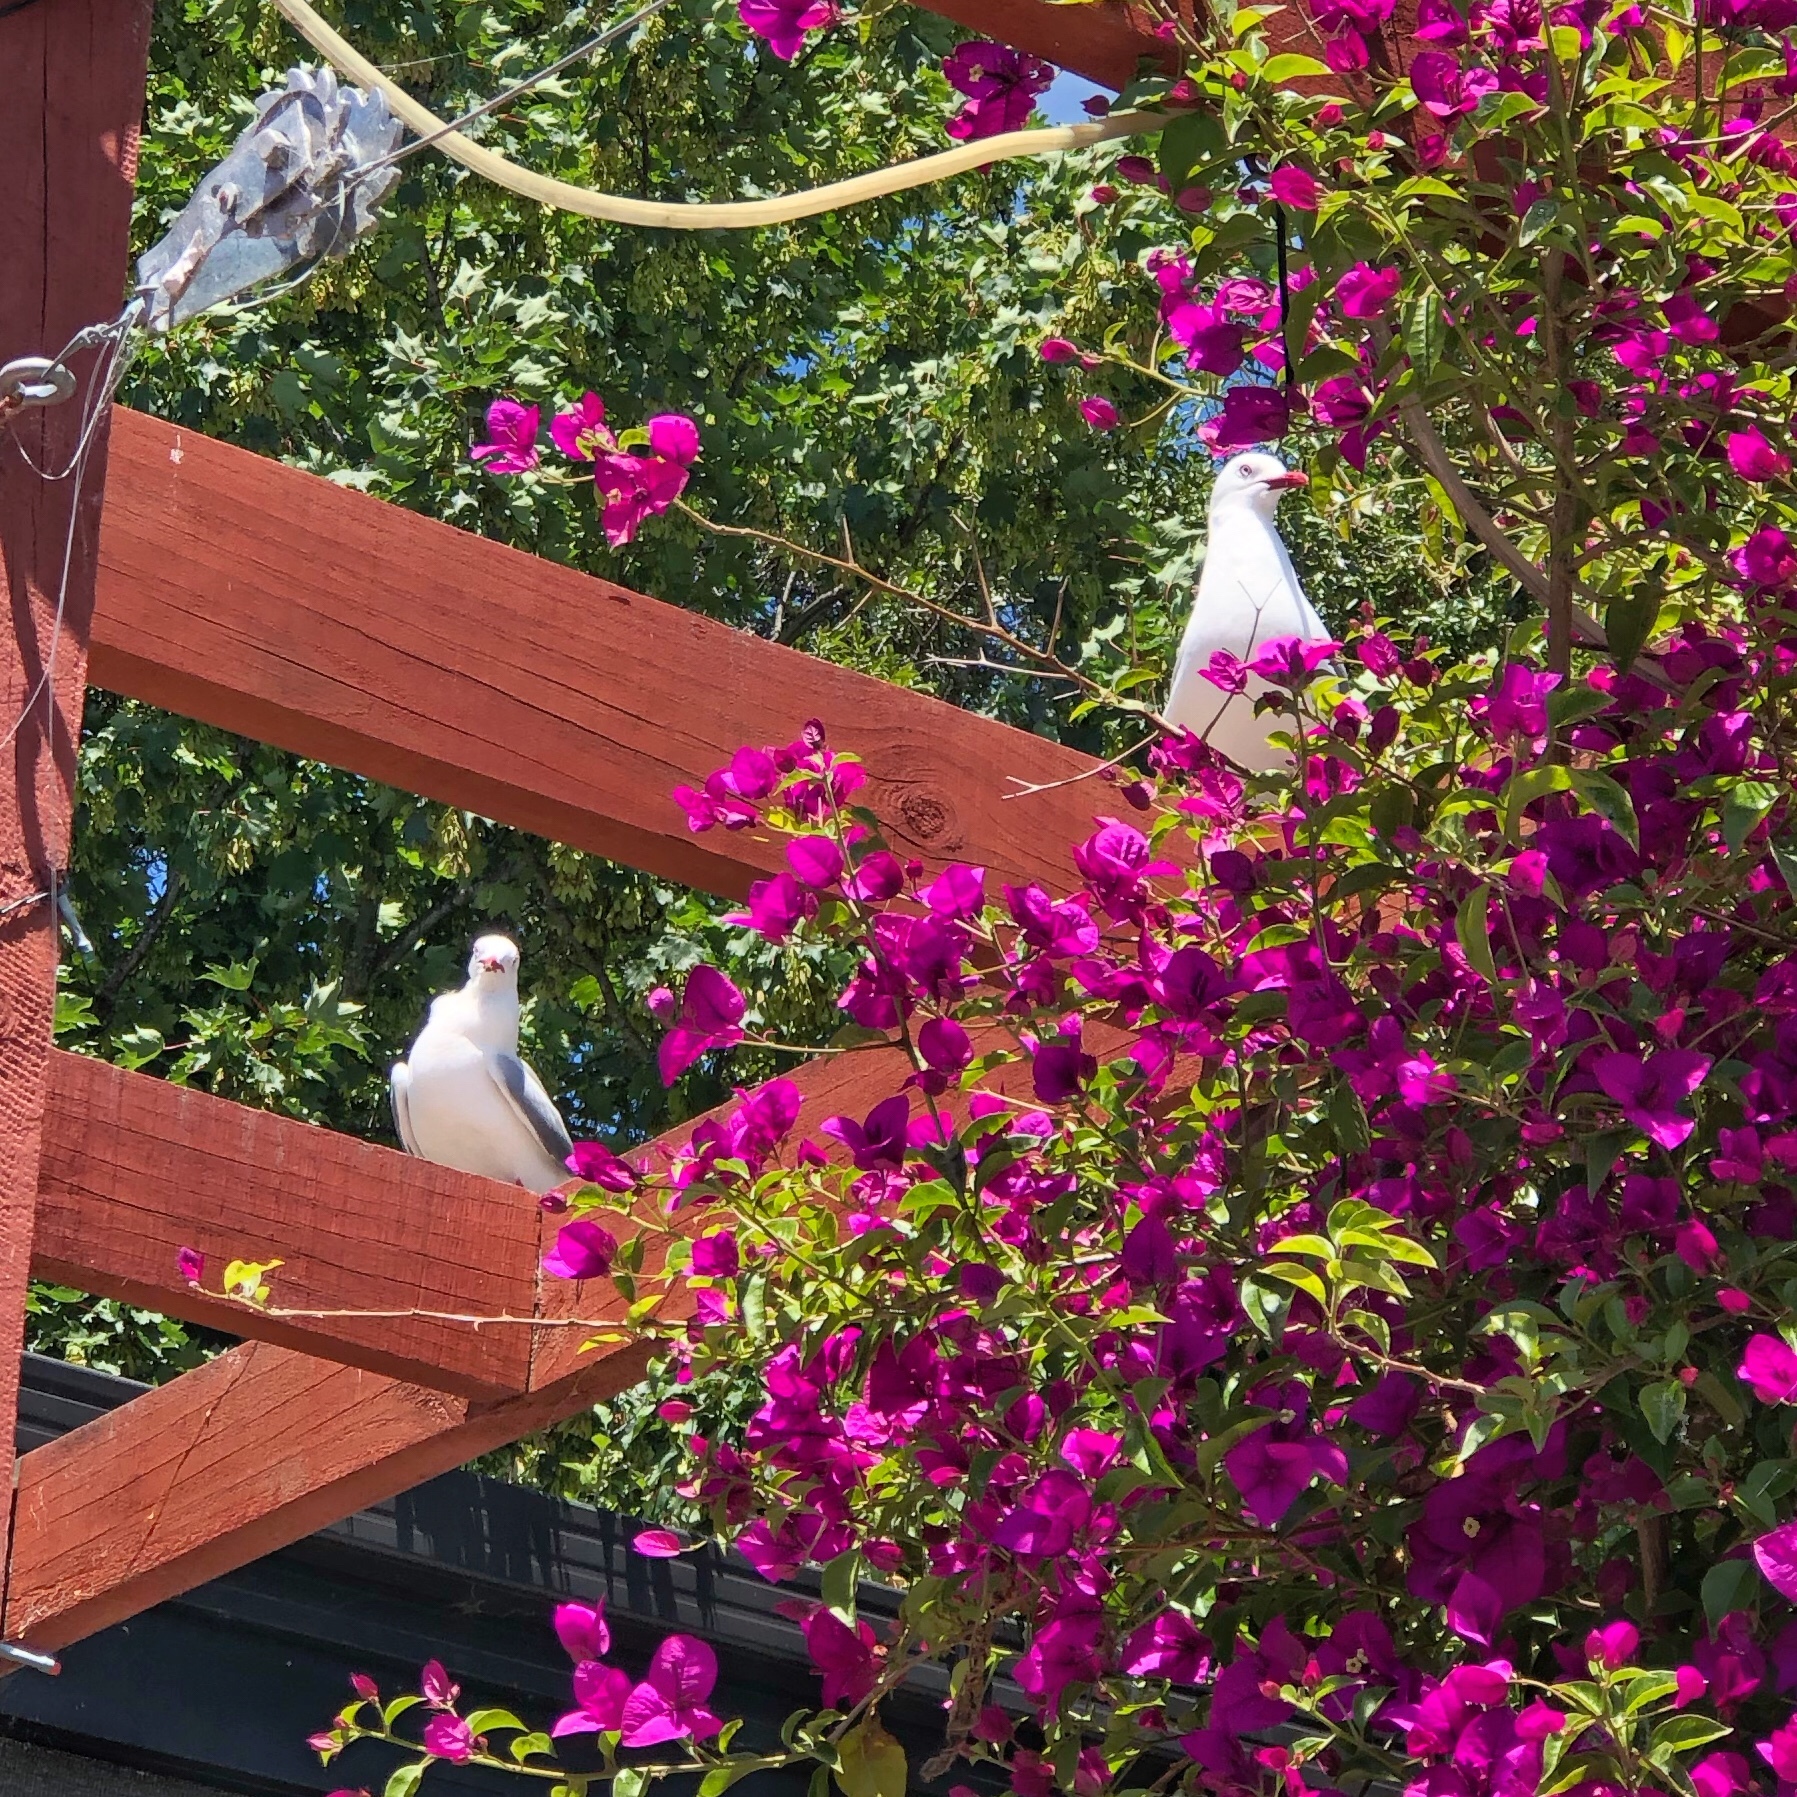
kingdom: Animalia
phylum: Chordata
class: Aves
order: Charadriiformes
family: Laridae
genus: Chroicocephalus
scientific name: Chroicocephalus novaehollandiae
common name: Silver gull
